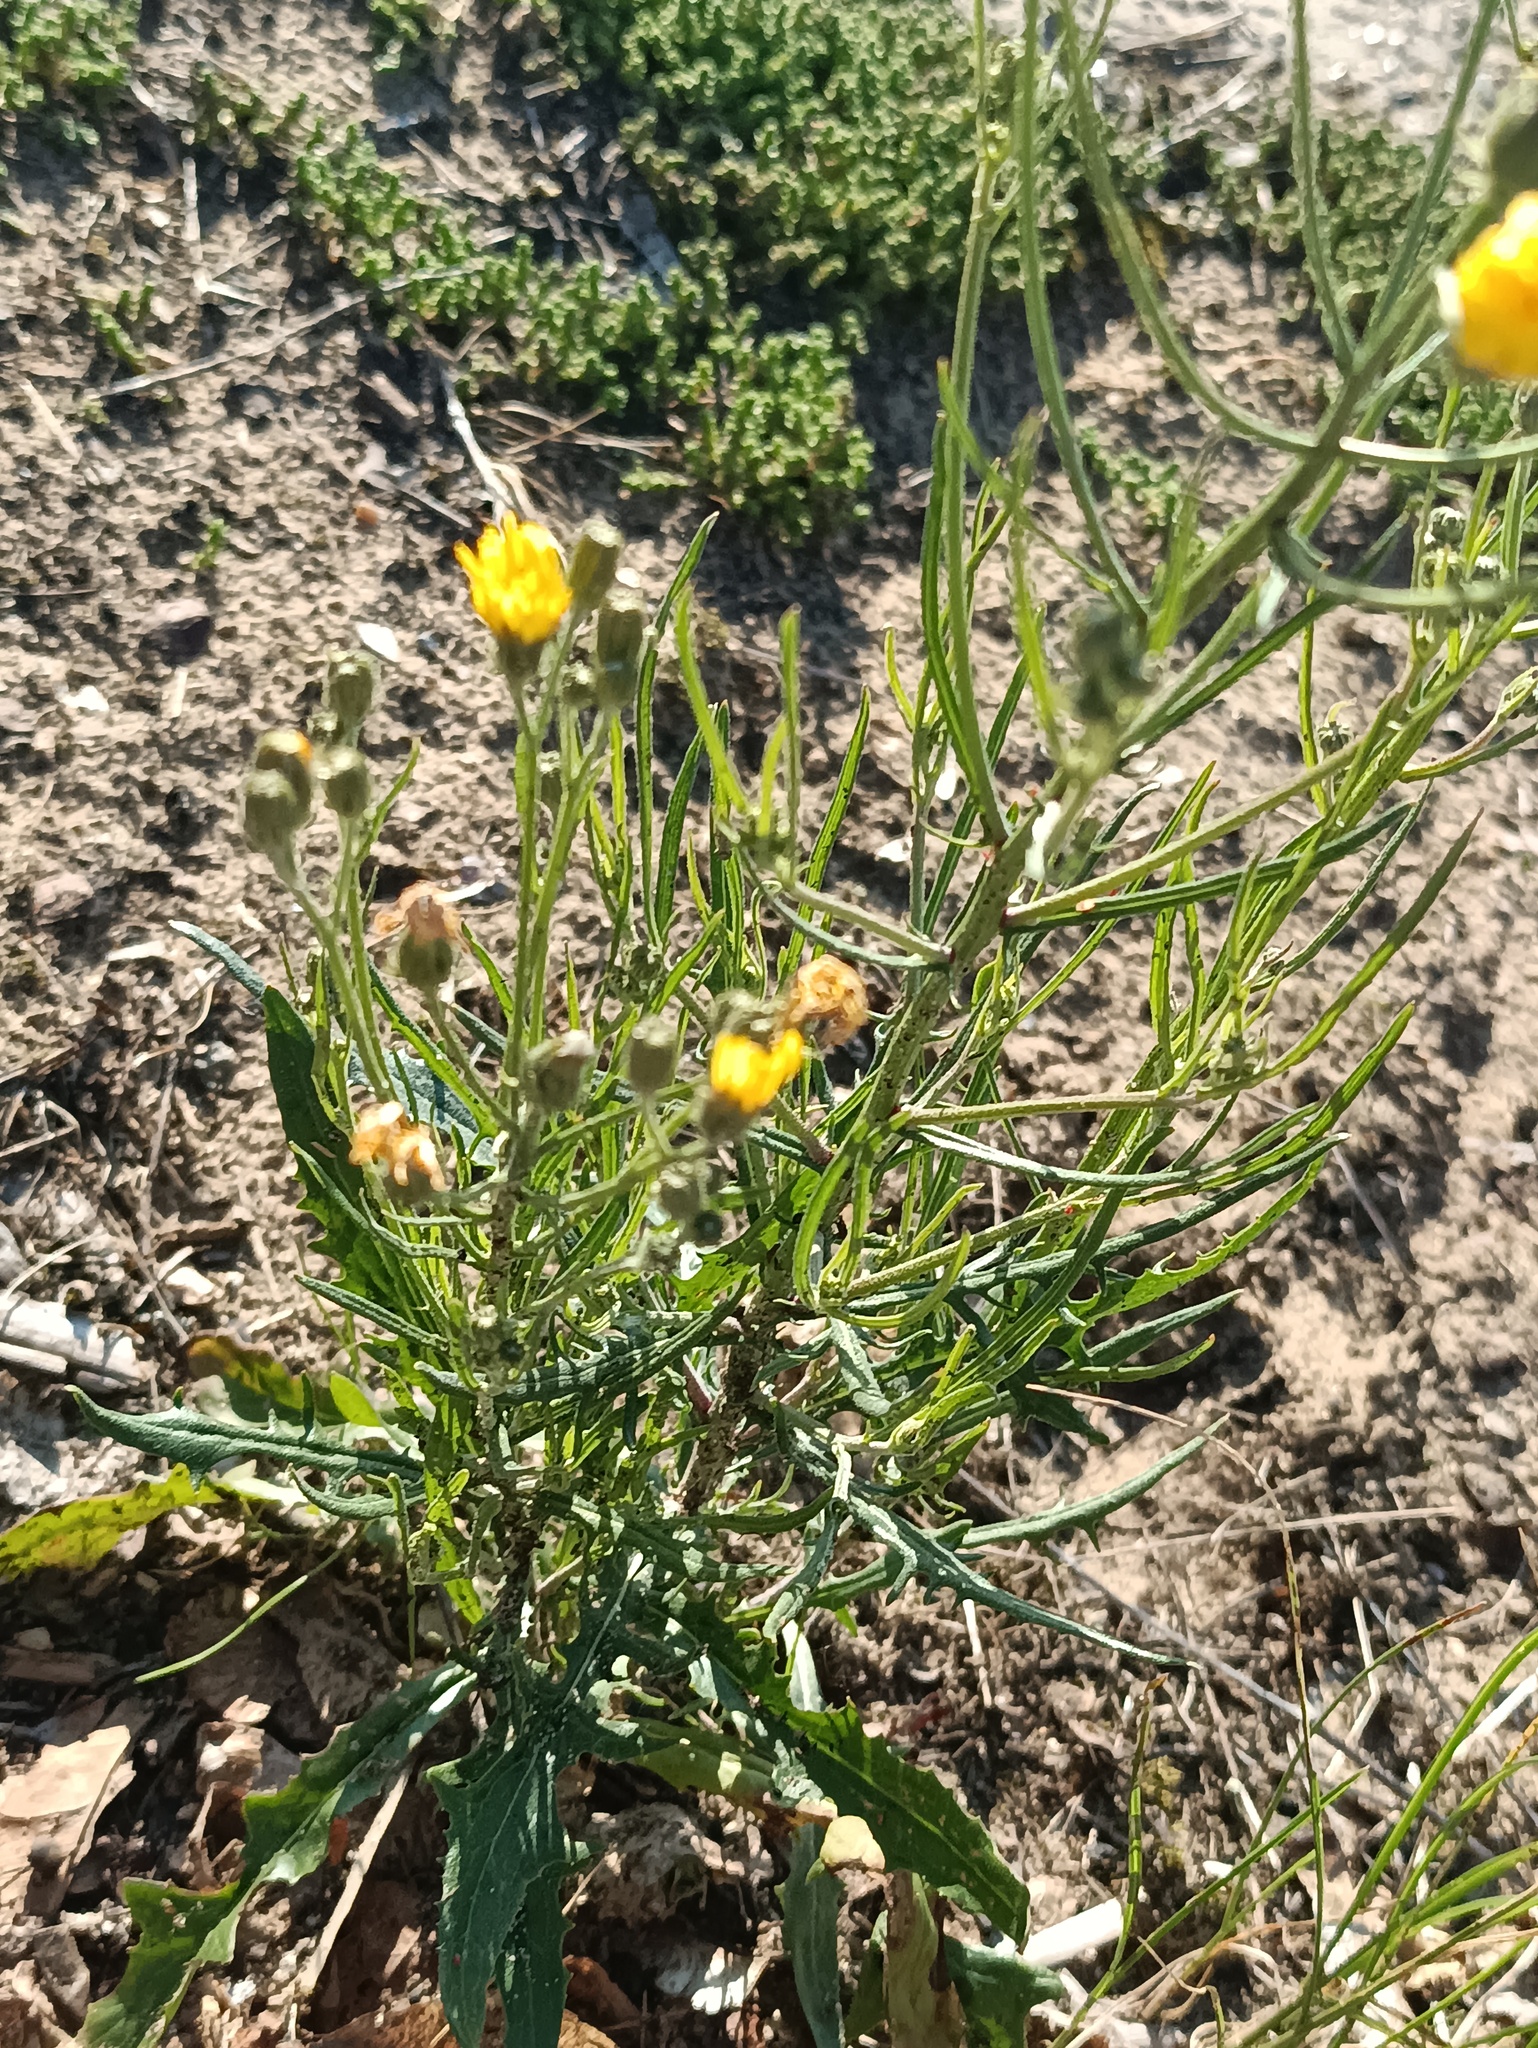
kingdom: Plantae
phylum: Tracheophyta
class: Magnoliopsida
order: Asterales
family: Asteraceae
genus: Crepis
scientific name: Crepis tectorum
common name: Narrow-leaved hawk's-beard
